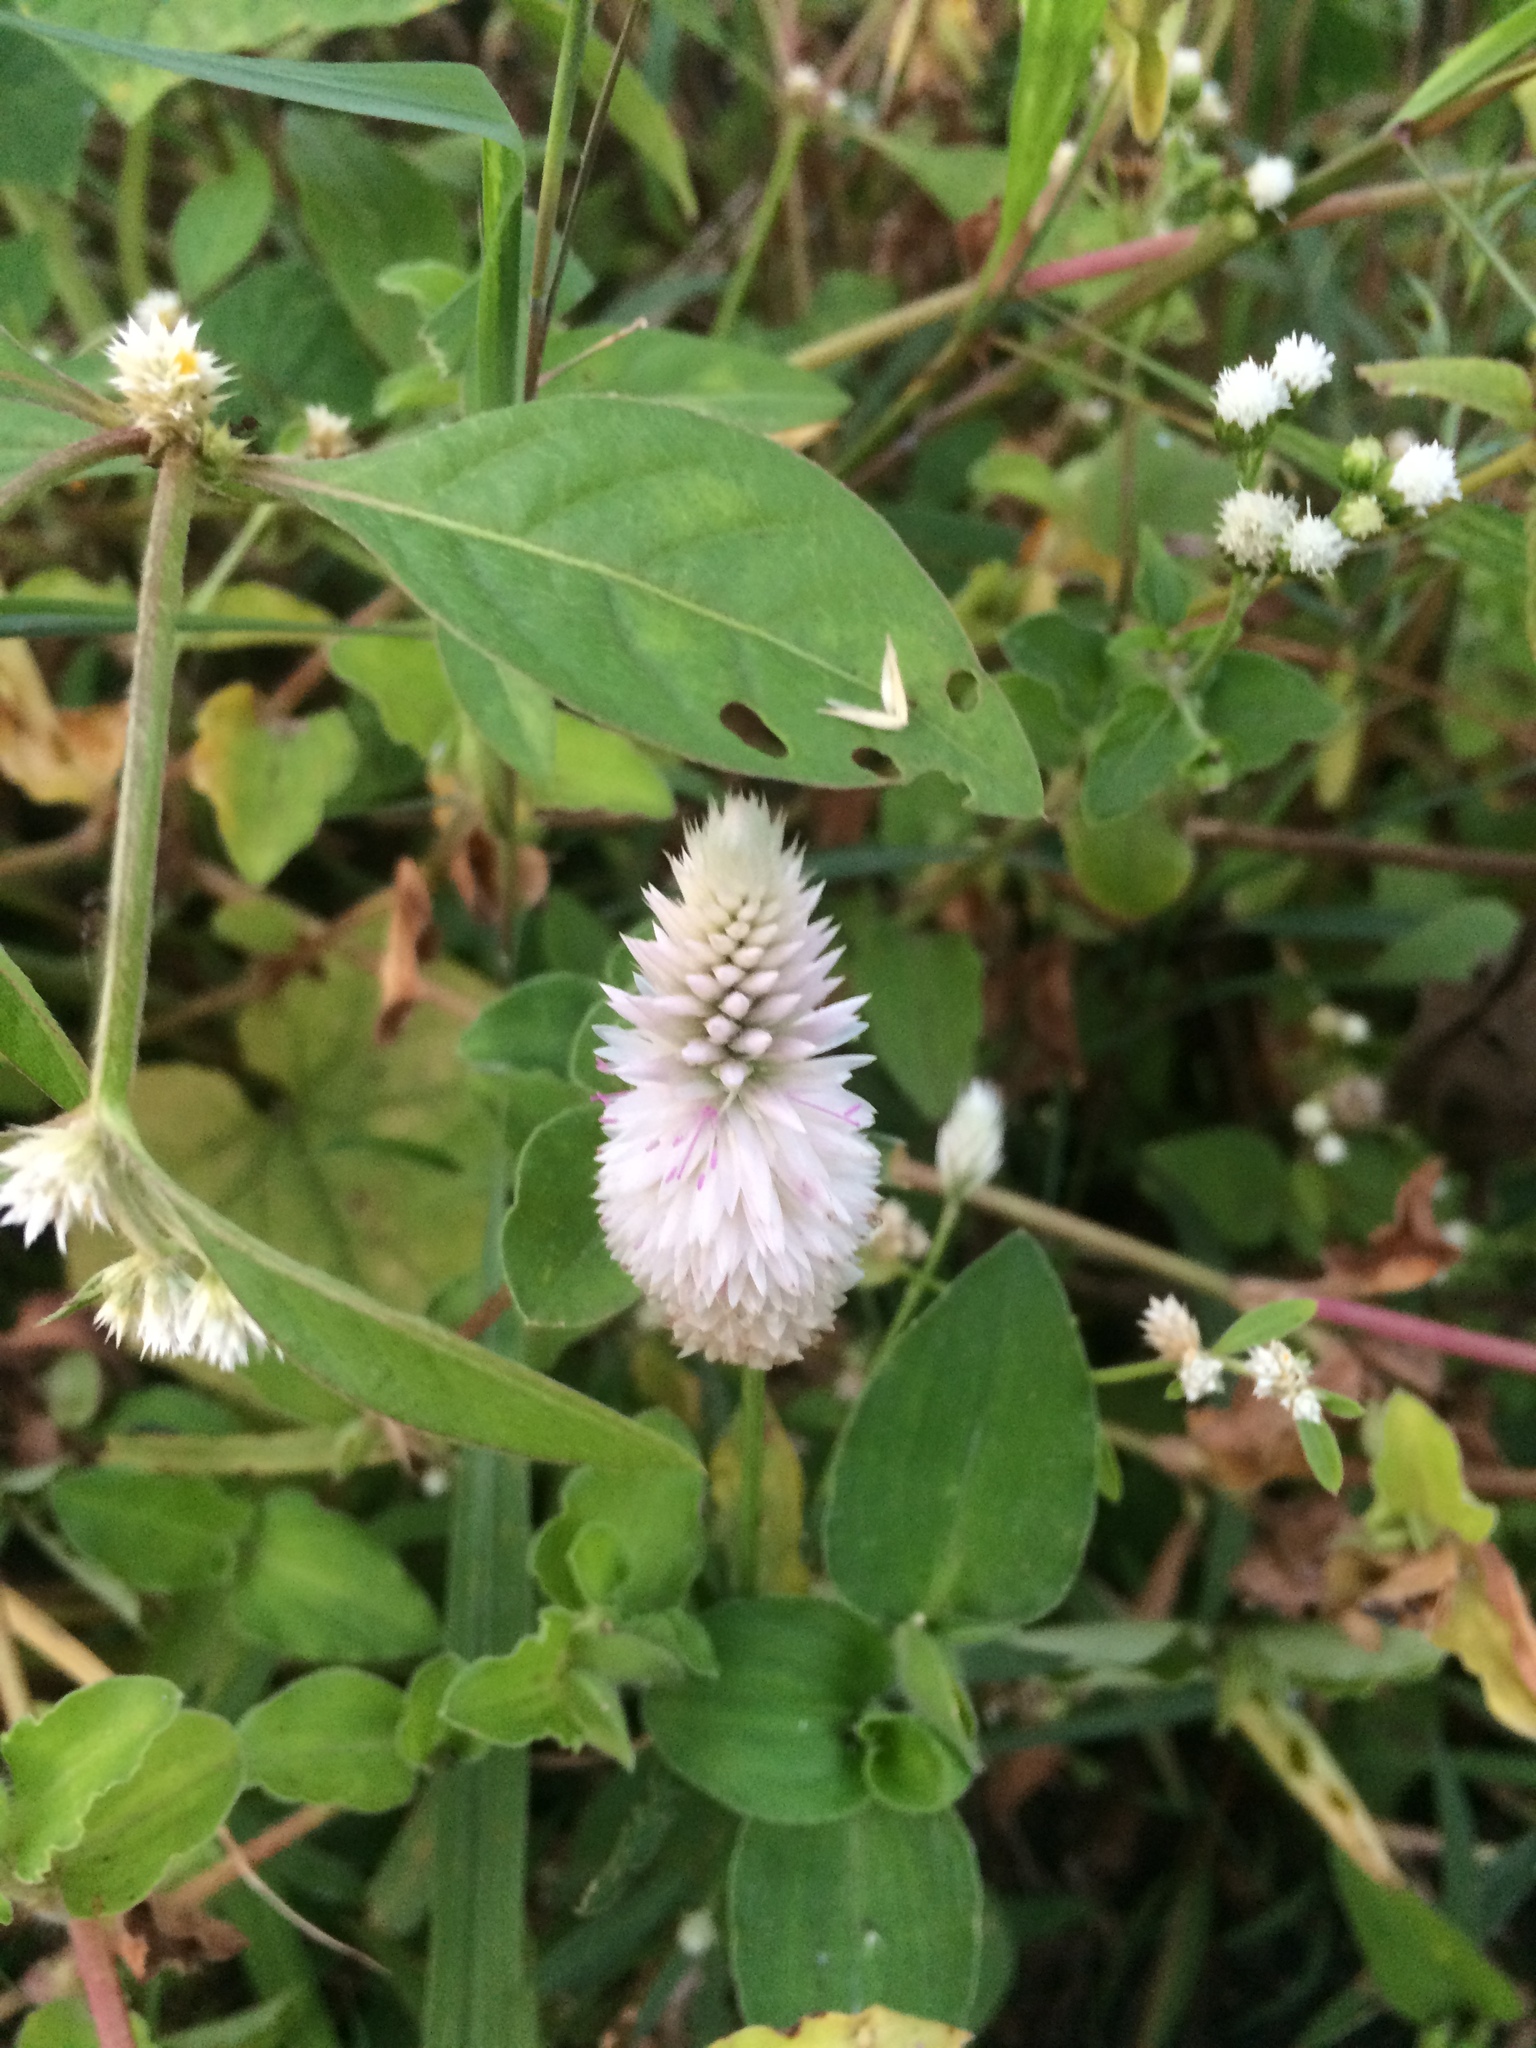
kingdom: Plantae
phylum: Tracheophyta
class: Magnoliopsida
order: Caryophyllales
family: Amaranthaceae
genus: Celosia
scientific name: Celosia argentea
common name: Feather cockscomb
